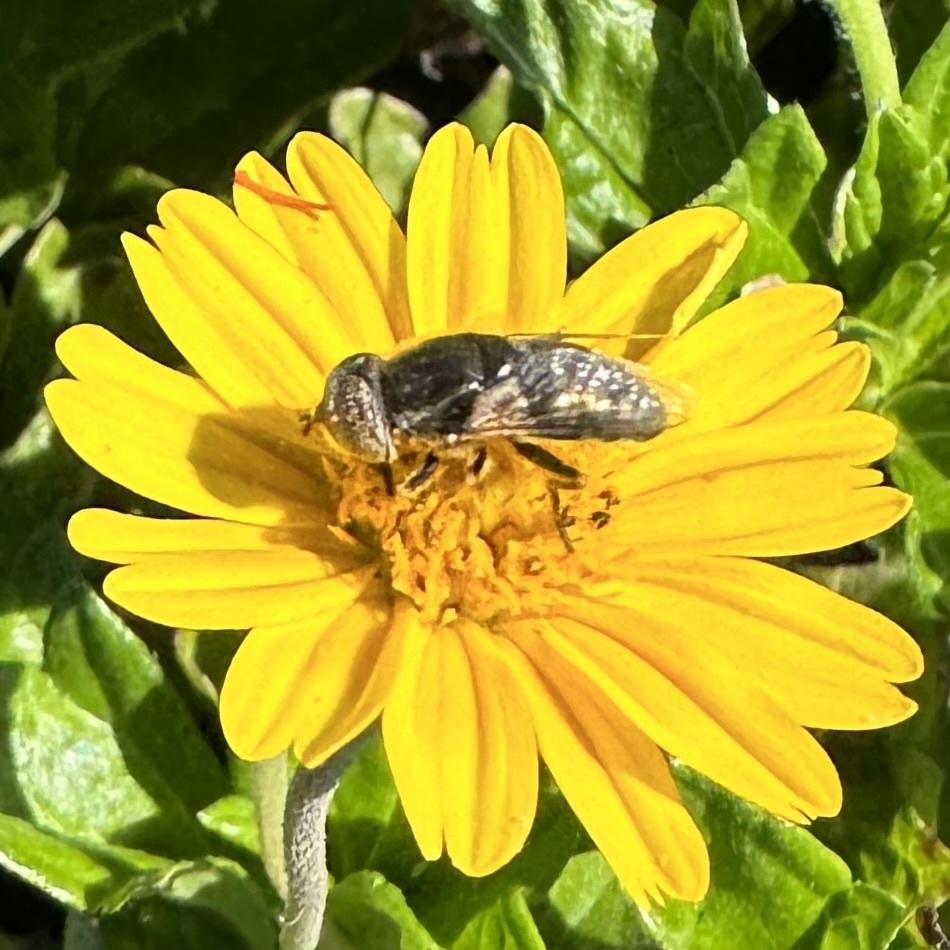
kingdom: Animalia
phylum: Arthropoda
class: Insecta
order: Diptera
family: Syrphidae
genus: Eristalinus
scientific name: Eristalinus aeneus
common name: Syrphid fly
